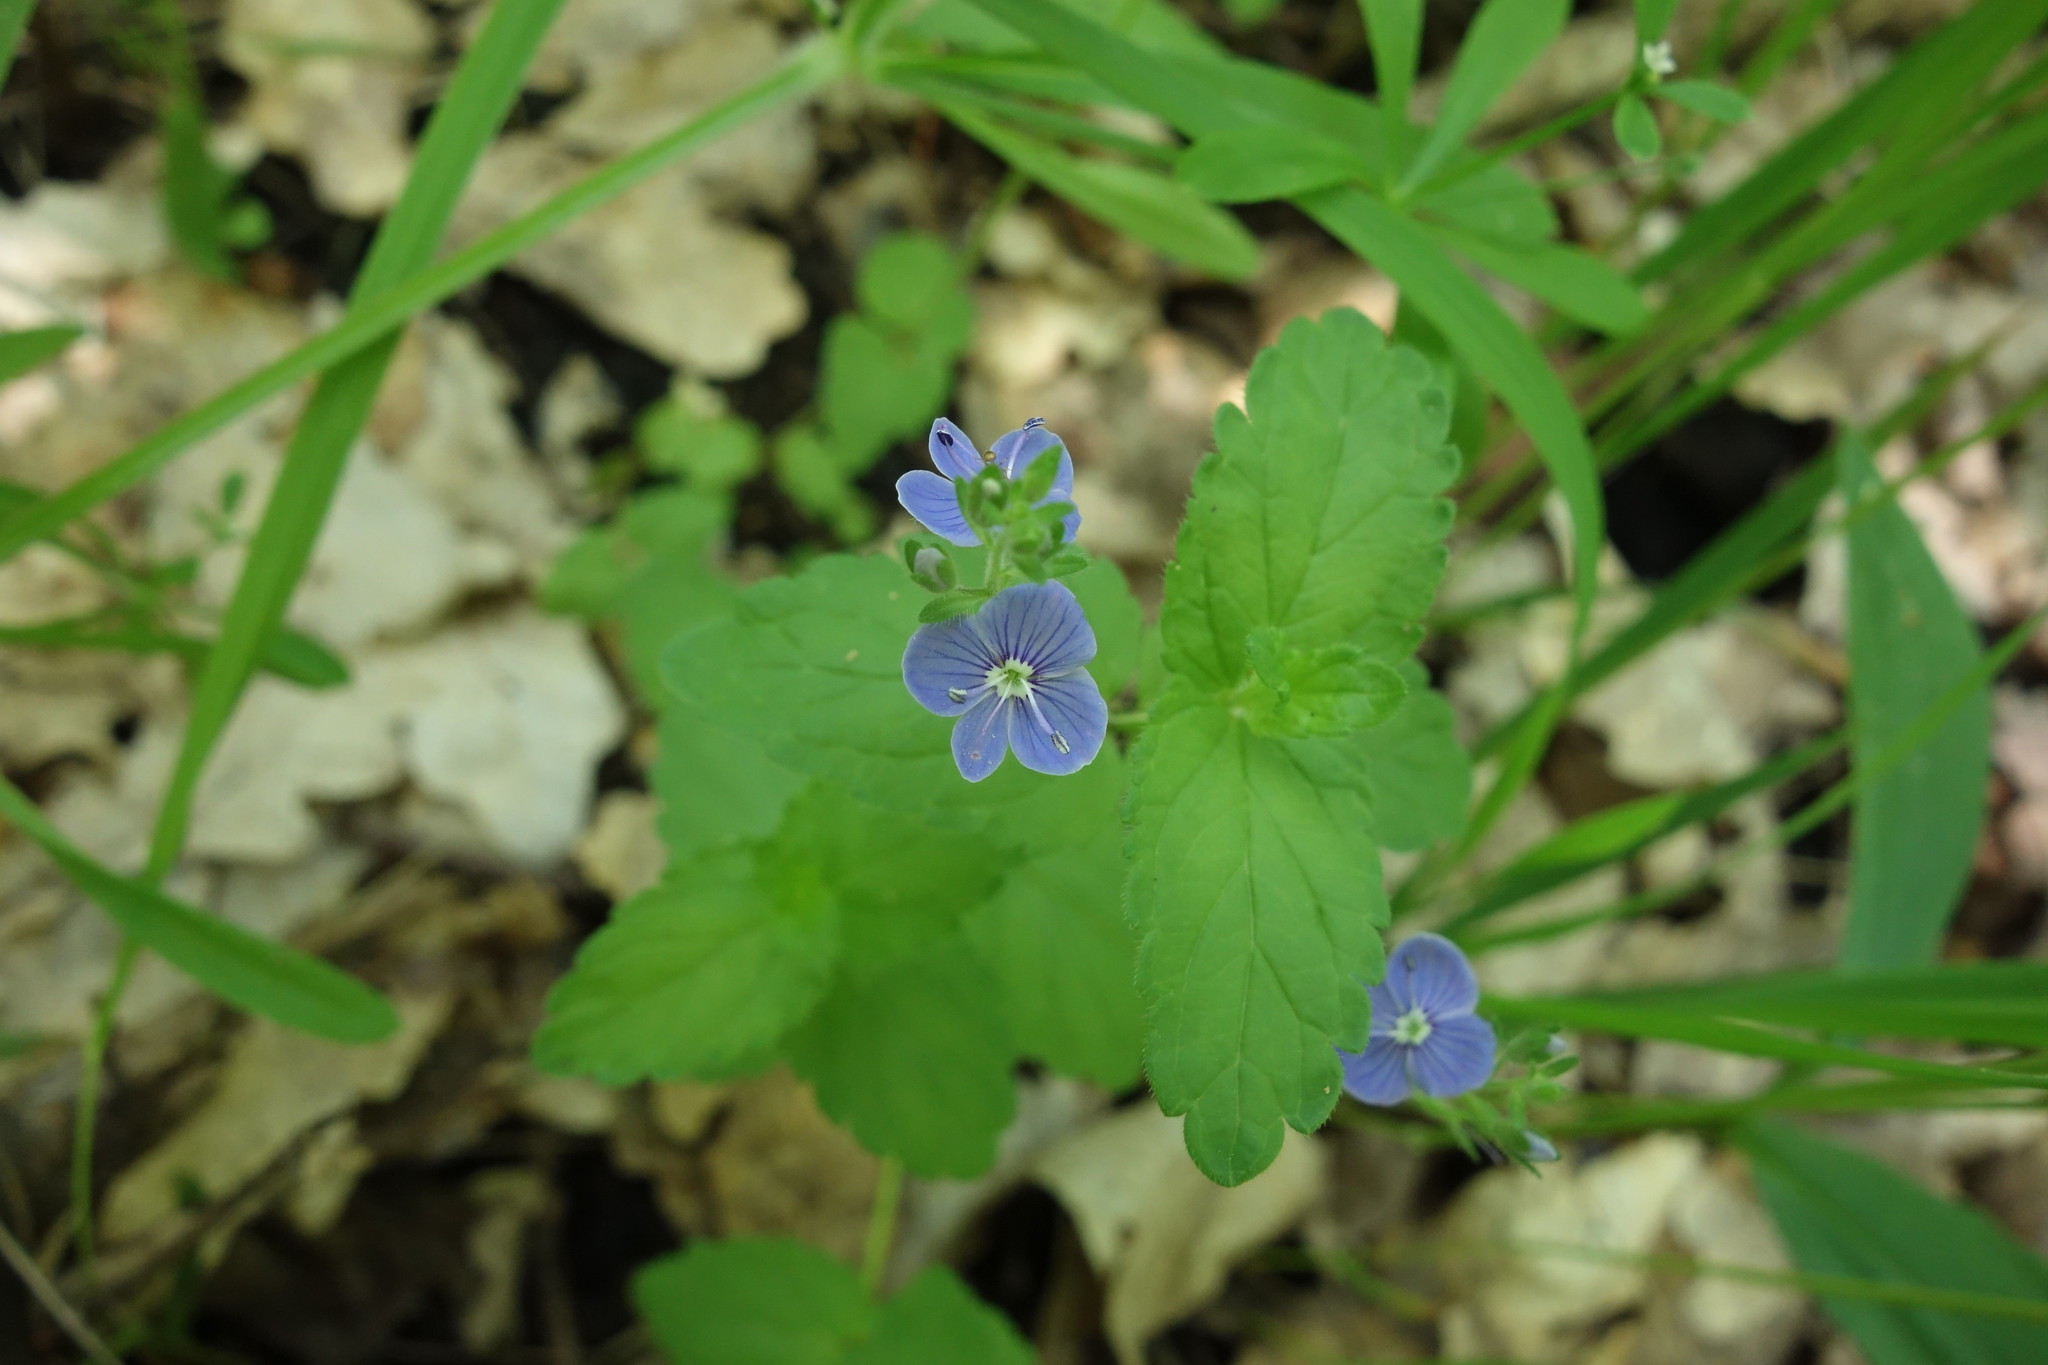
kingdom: Plantae
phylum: Tracheophyta
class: Magnoliopsida
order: Lamiales
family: Plantaginaceae
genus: Veronica
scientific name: Veronica chamaedrys
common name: Germander speedwell
